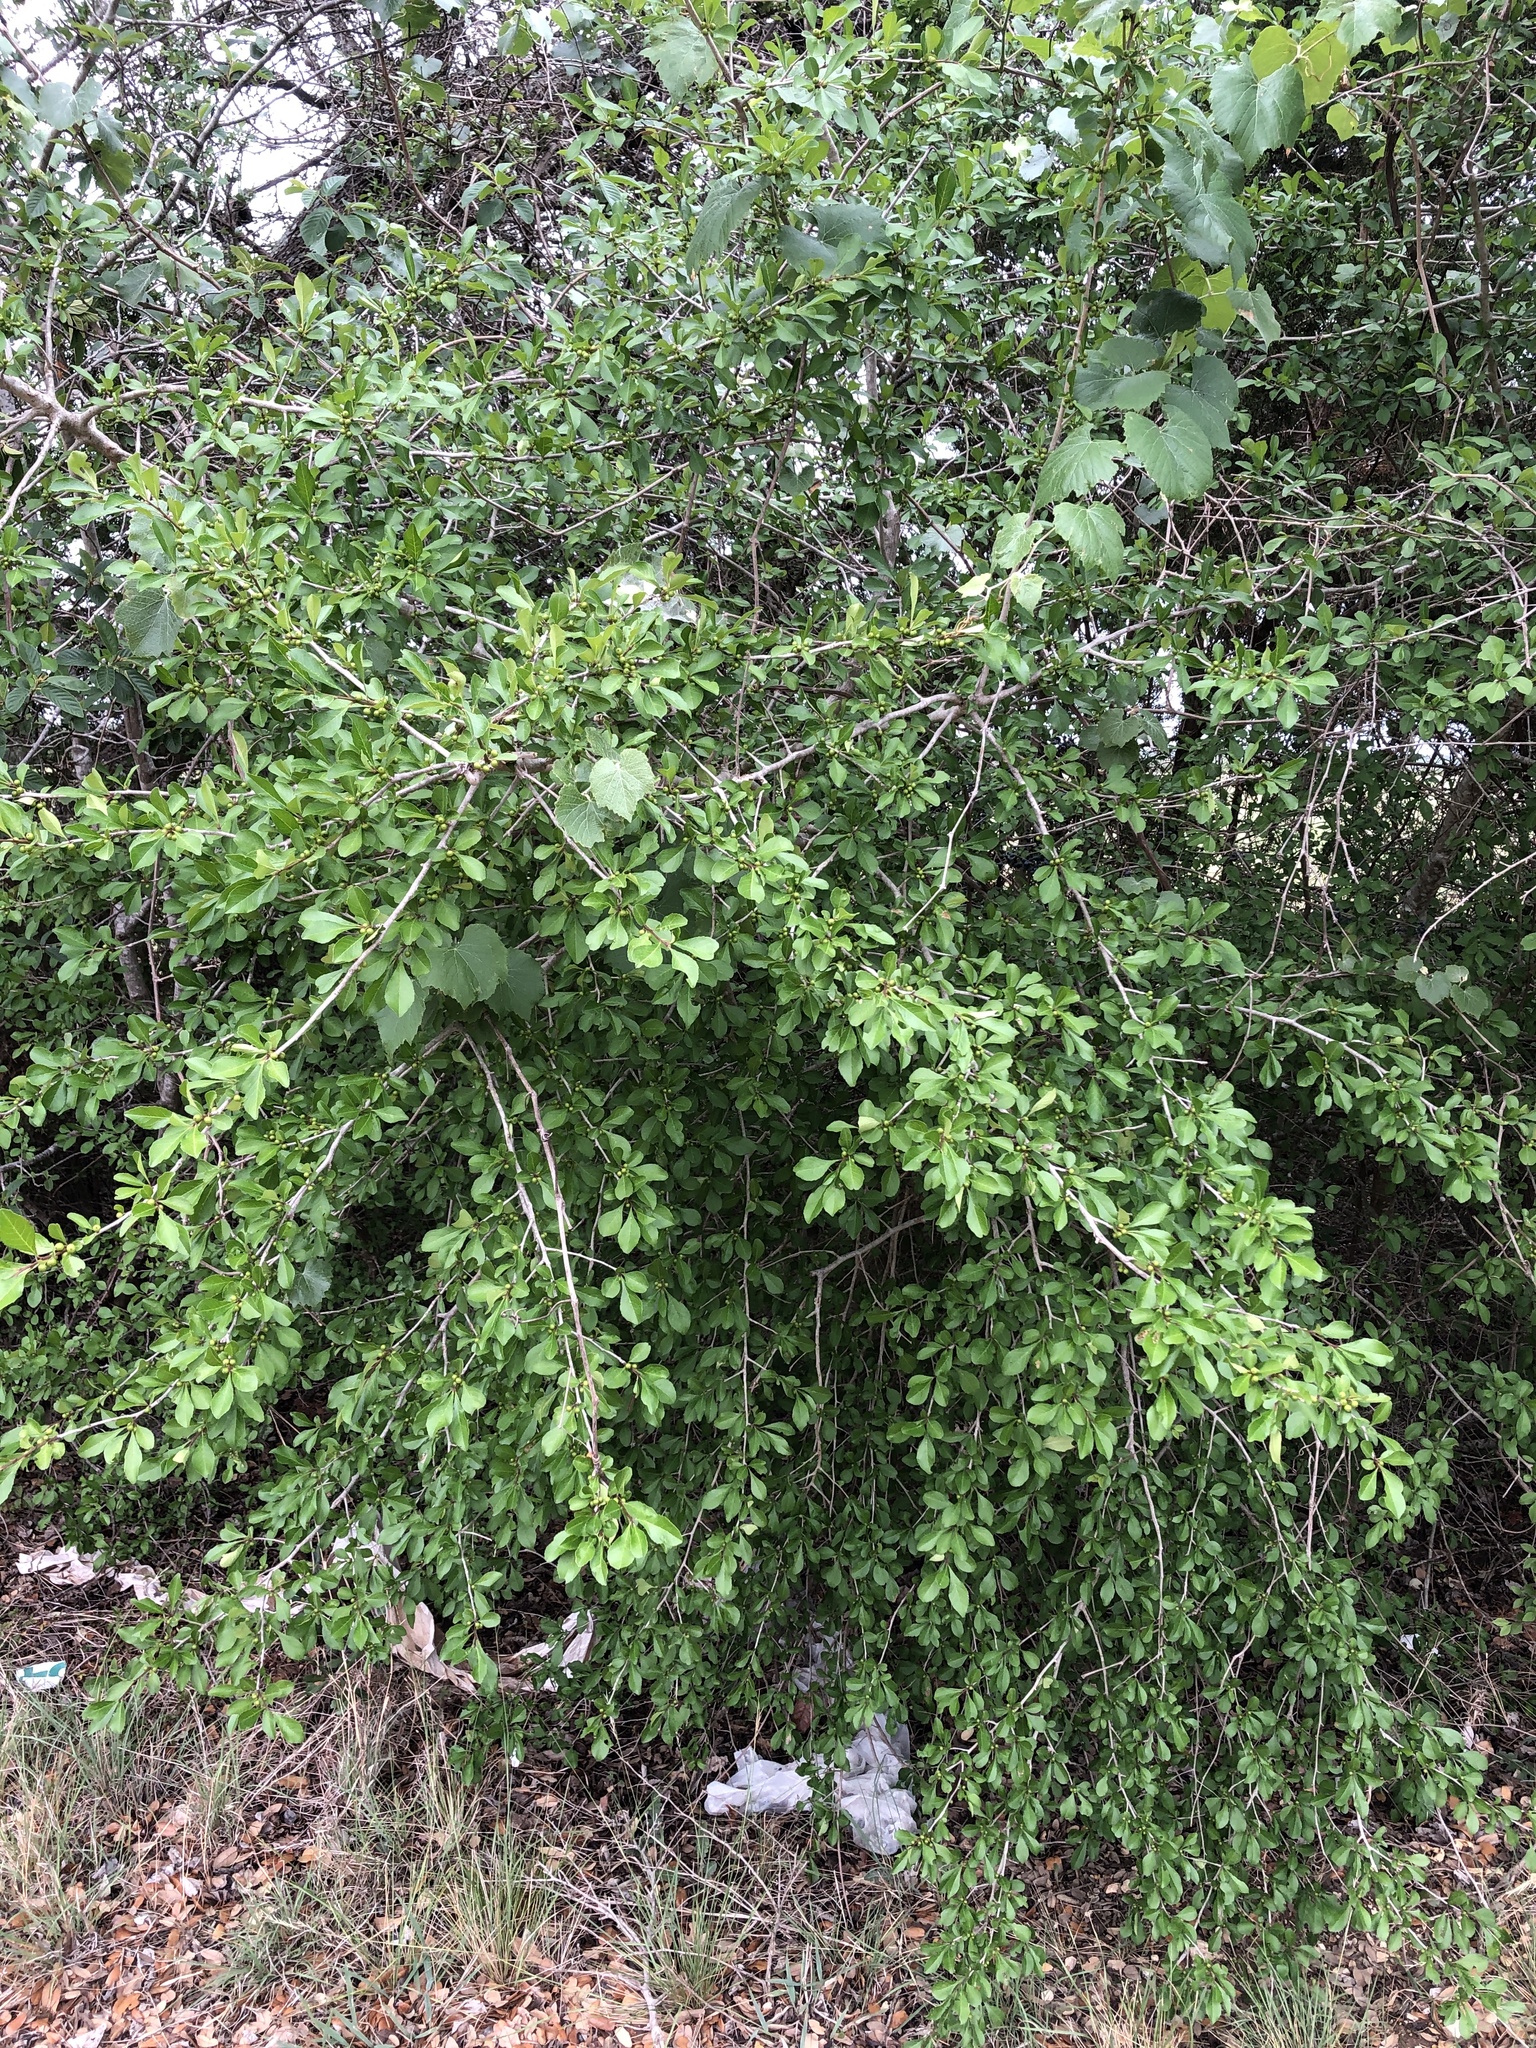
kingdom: Plantae
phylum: Tracheophyta
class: Magnoliopsida
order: Aquifoliales
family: Aquifoliaceae
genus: Ilex
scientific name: Ilex decidua
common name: Possum-haw
